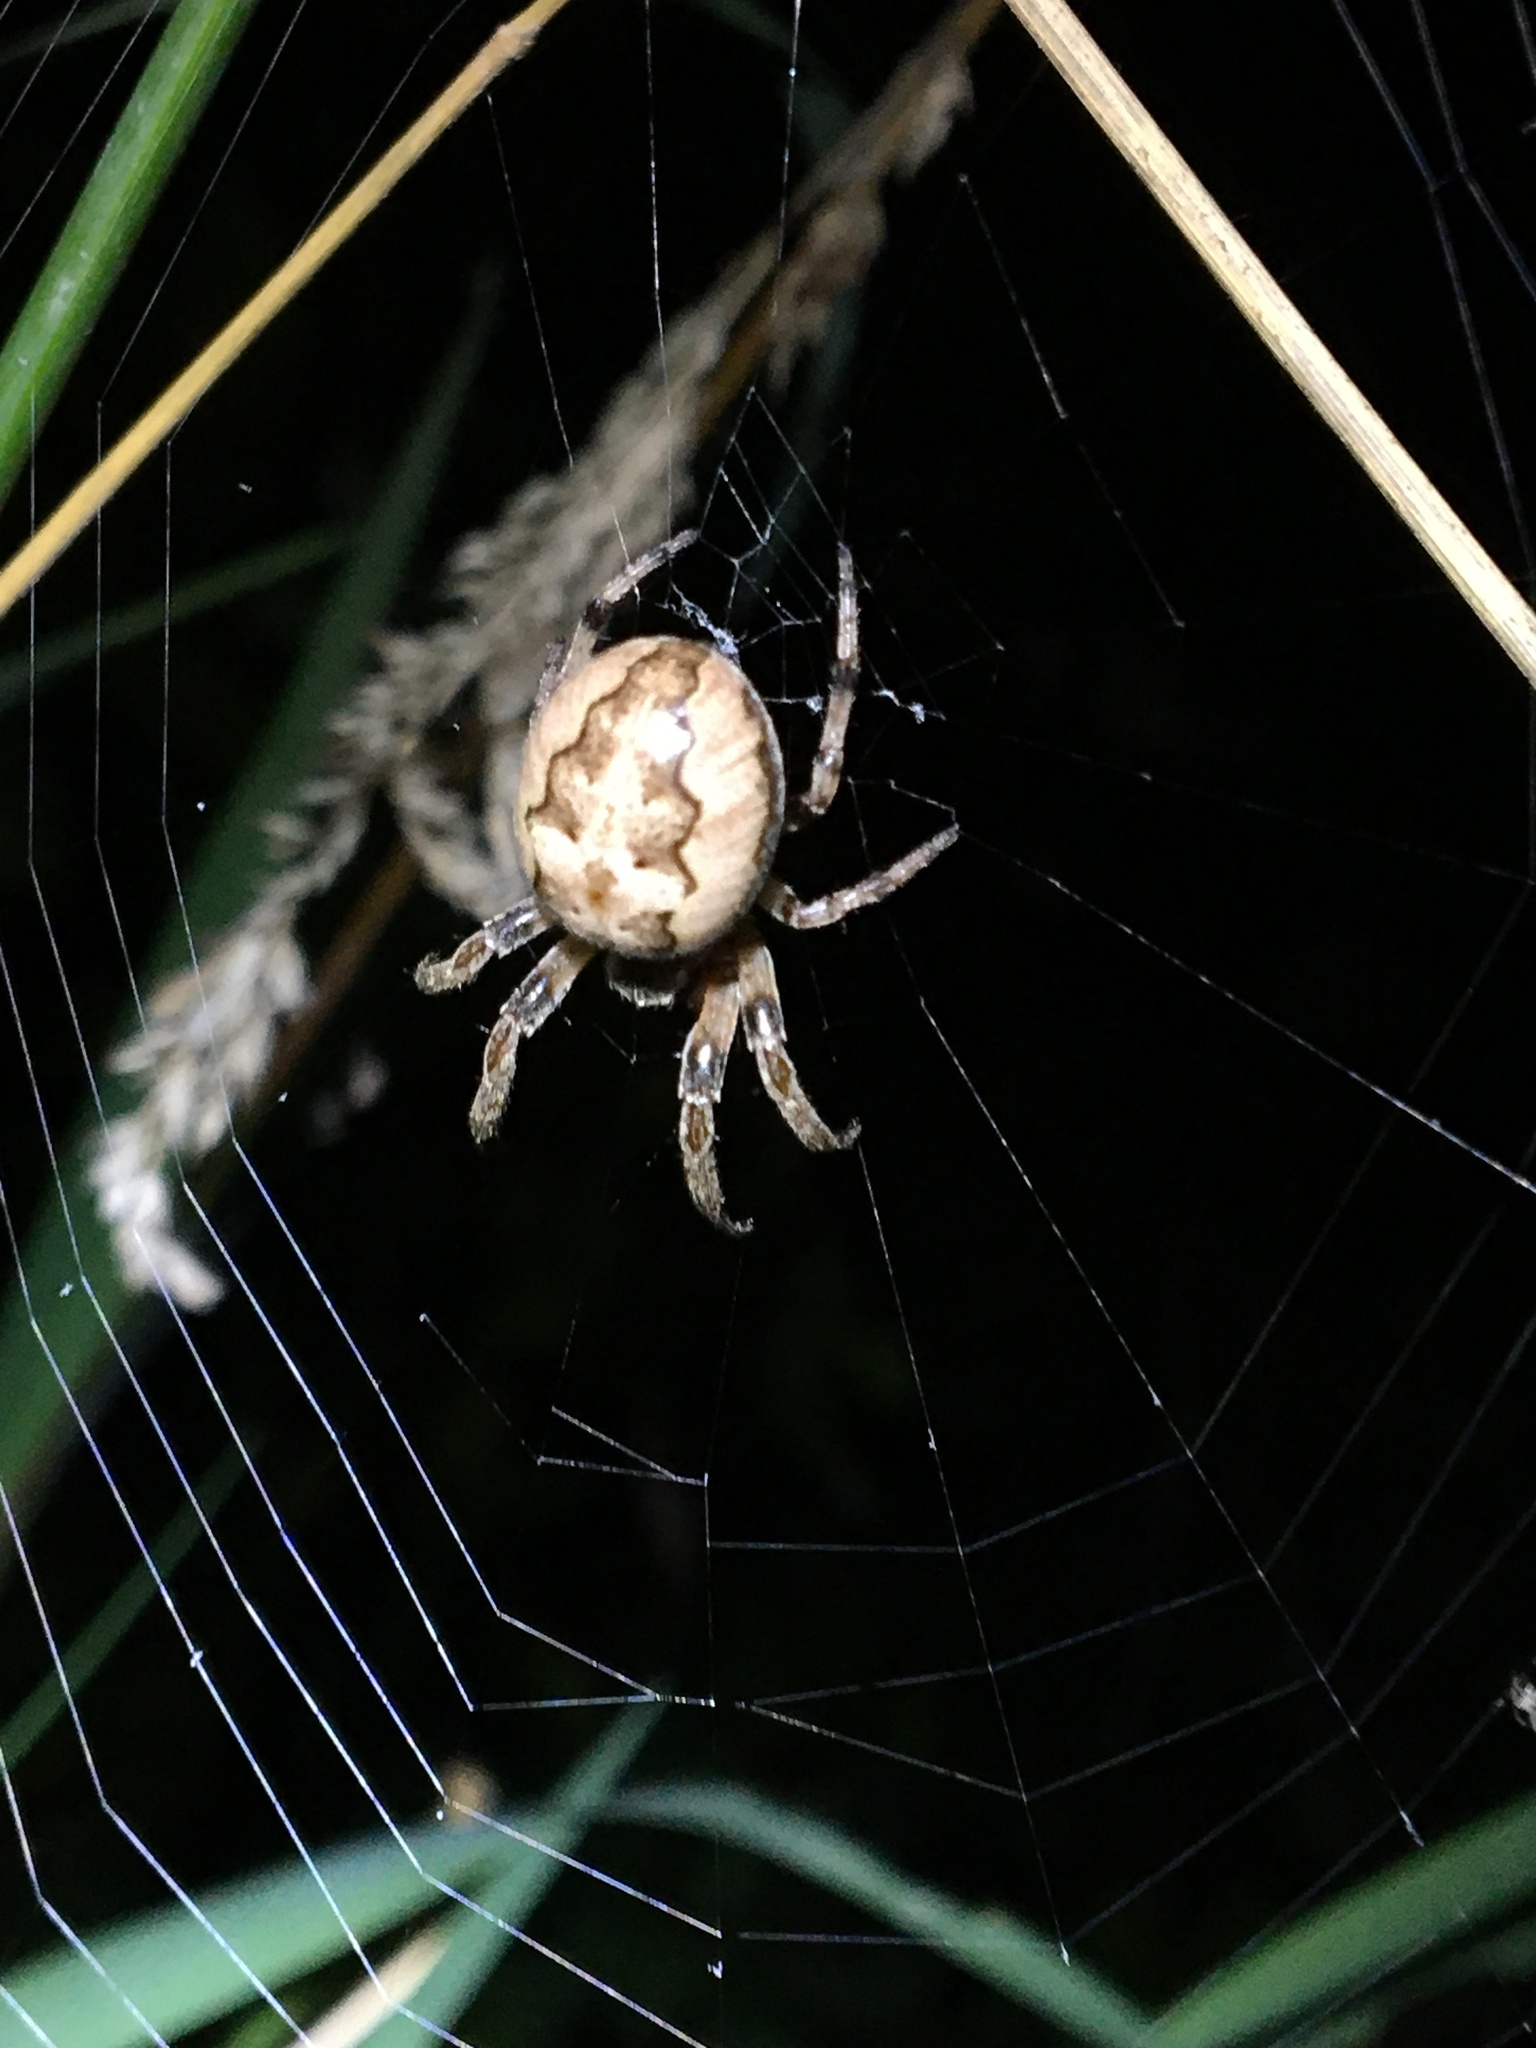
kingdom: Animalia
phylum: Arthropoda
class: Arachnida
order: Araneae
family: Araneidae
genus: Larinioides
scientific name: Larinioides cornutus
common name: Furrow orbweaver
